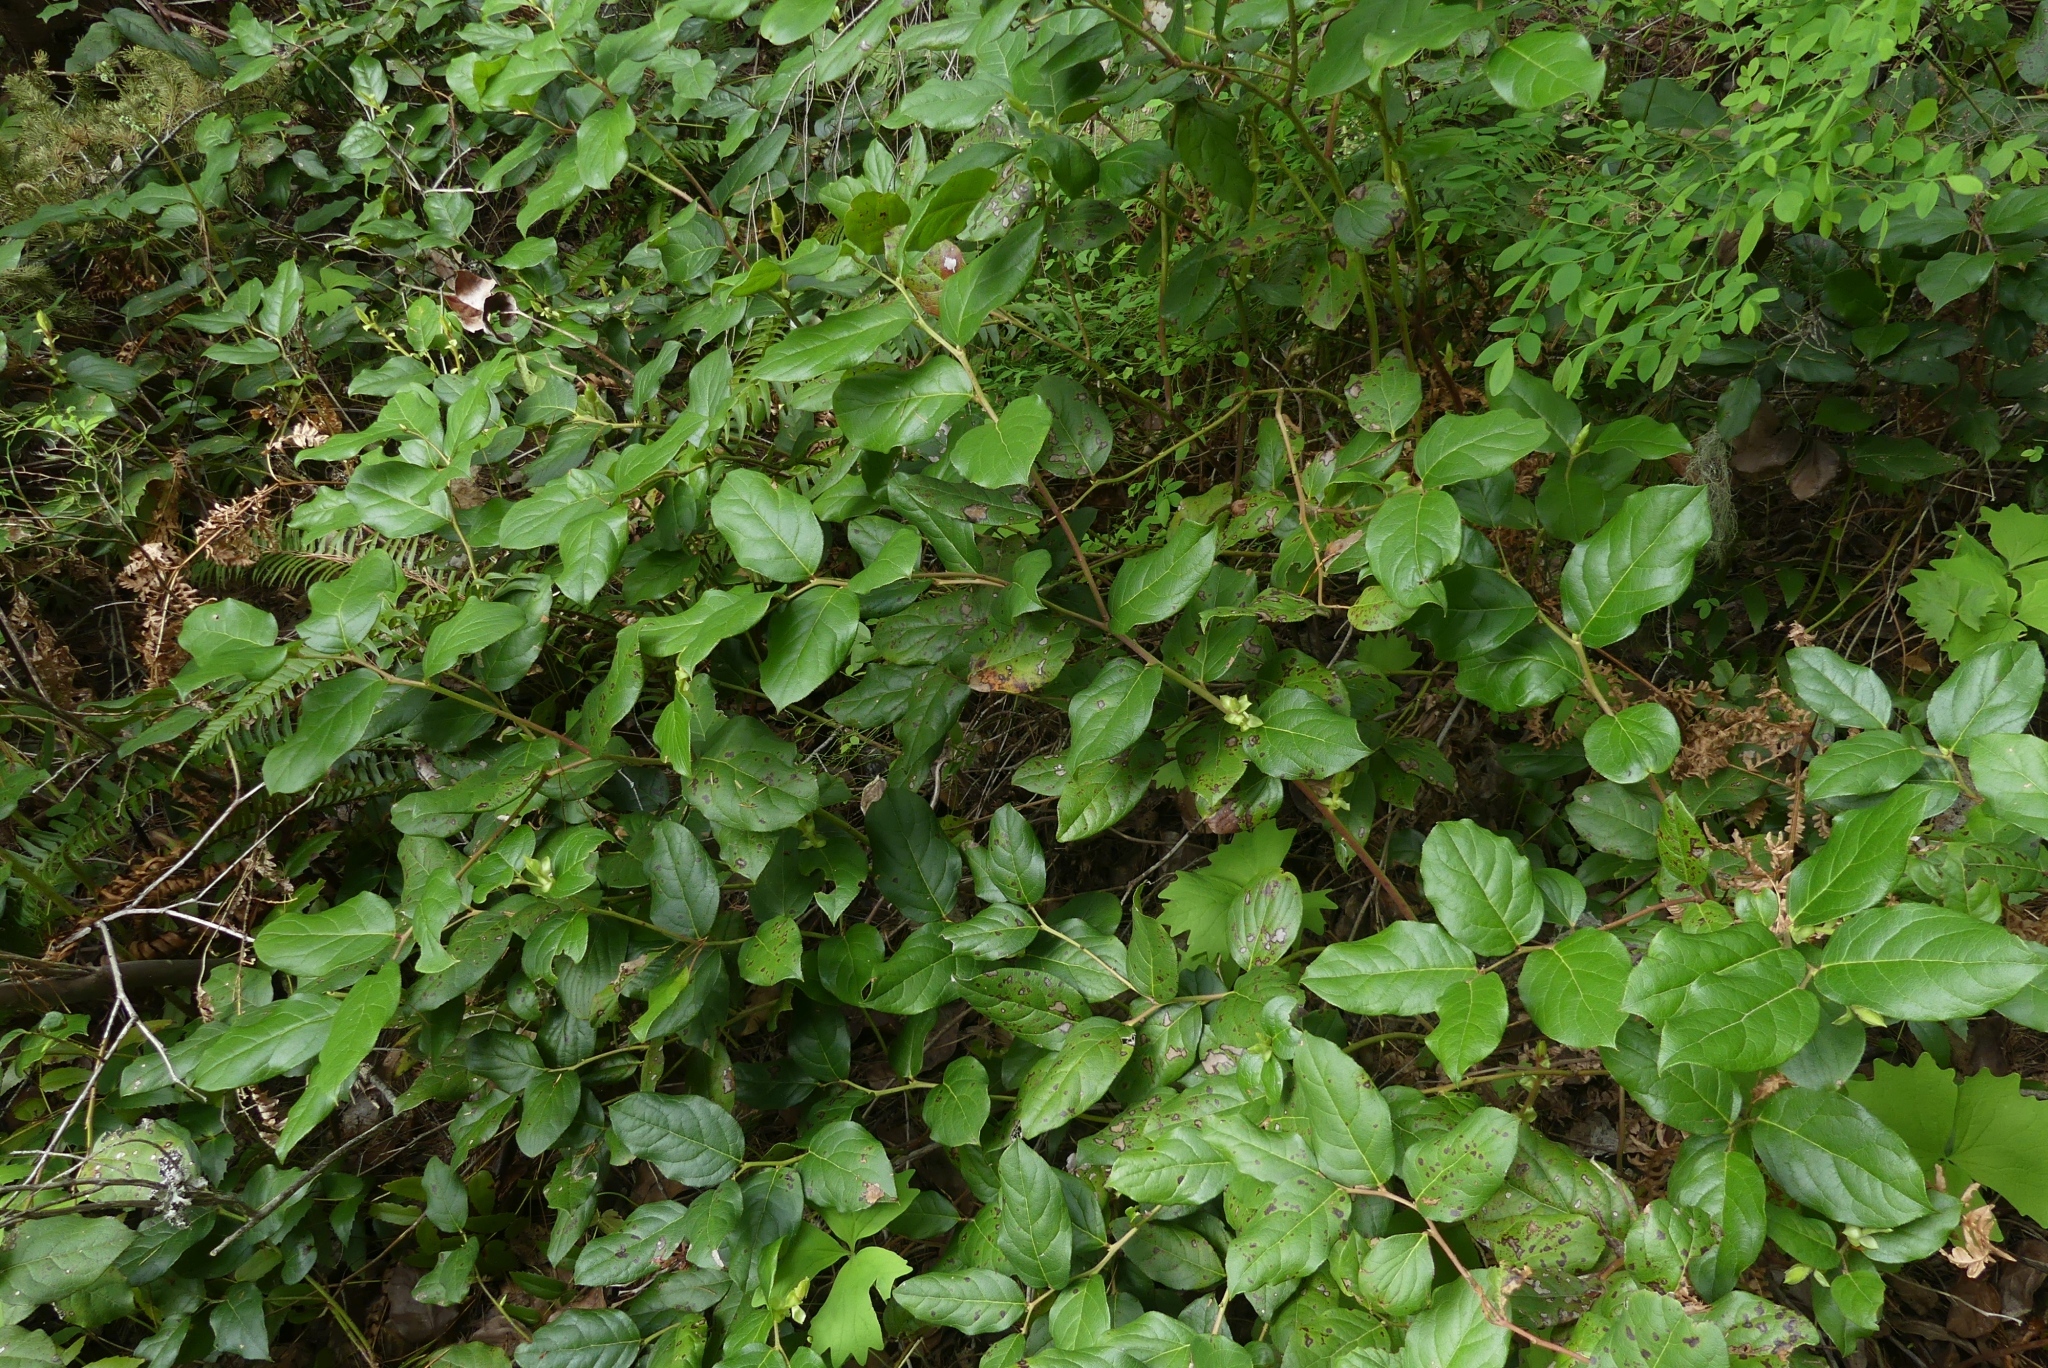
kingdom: Plantae
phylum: Tracheophyta
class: Magnoliopsida
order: Ericales
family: Ericaceae
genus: Gaultheria
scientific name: Gaultheria shallon
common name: Shallon
